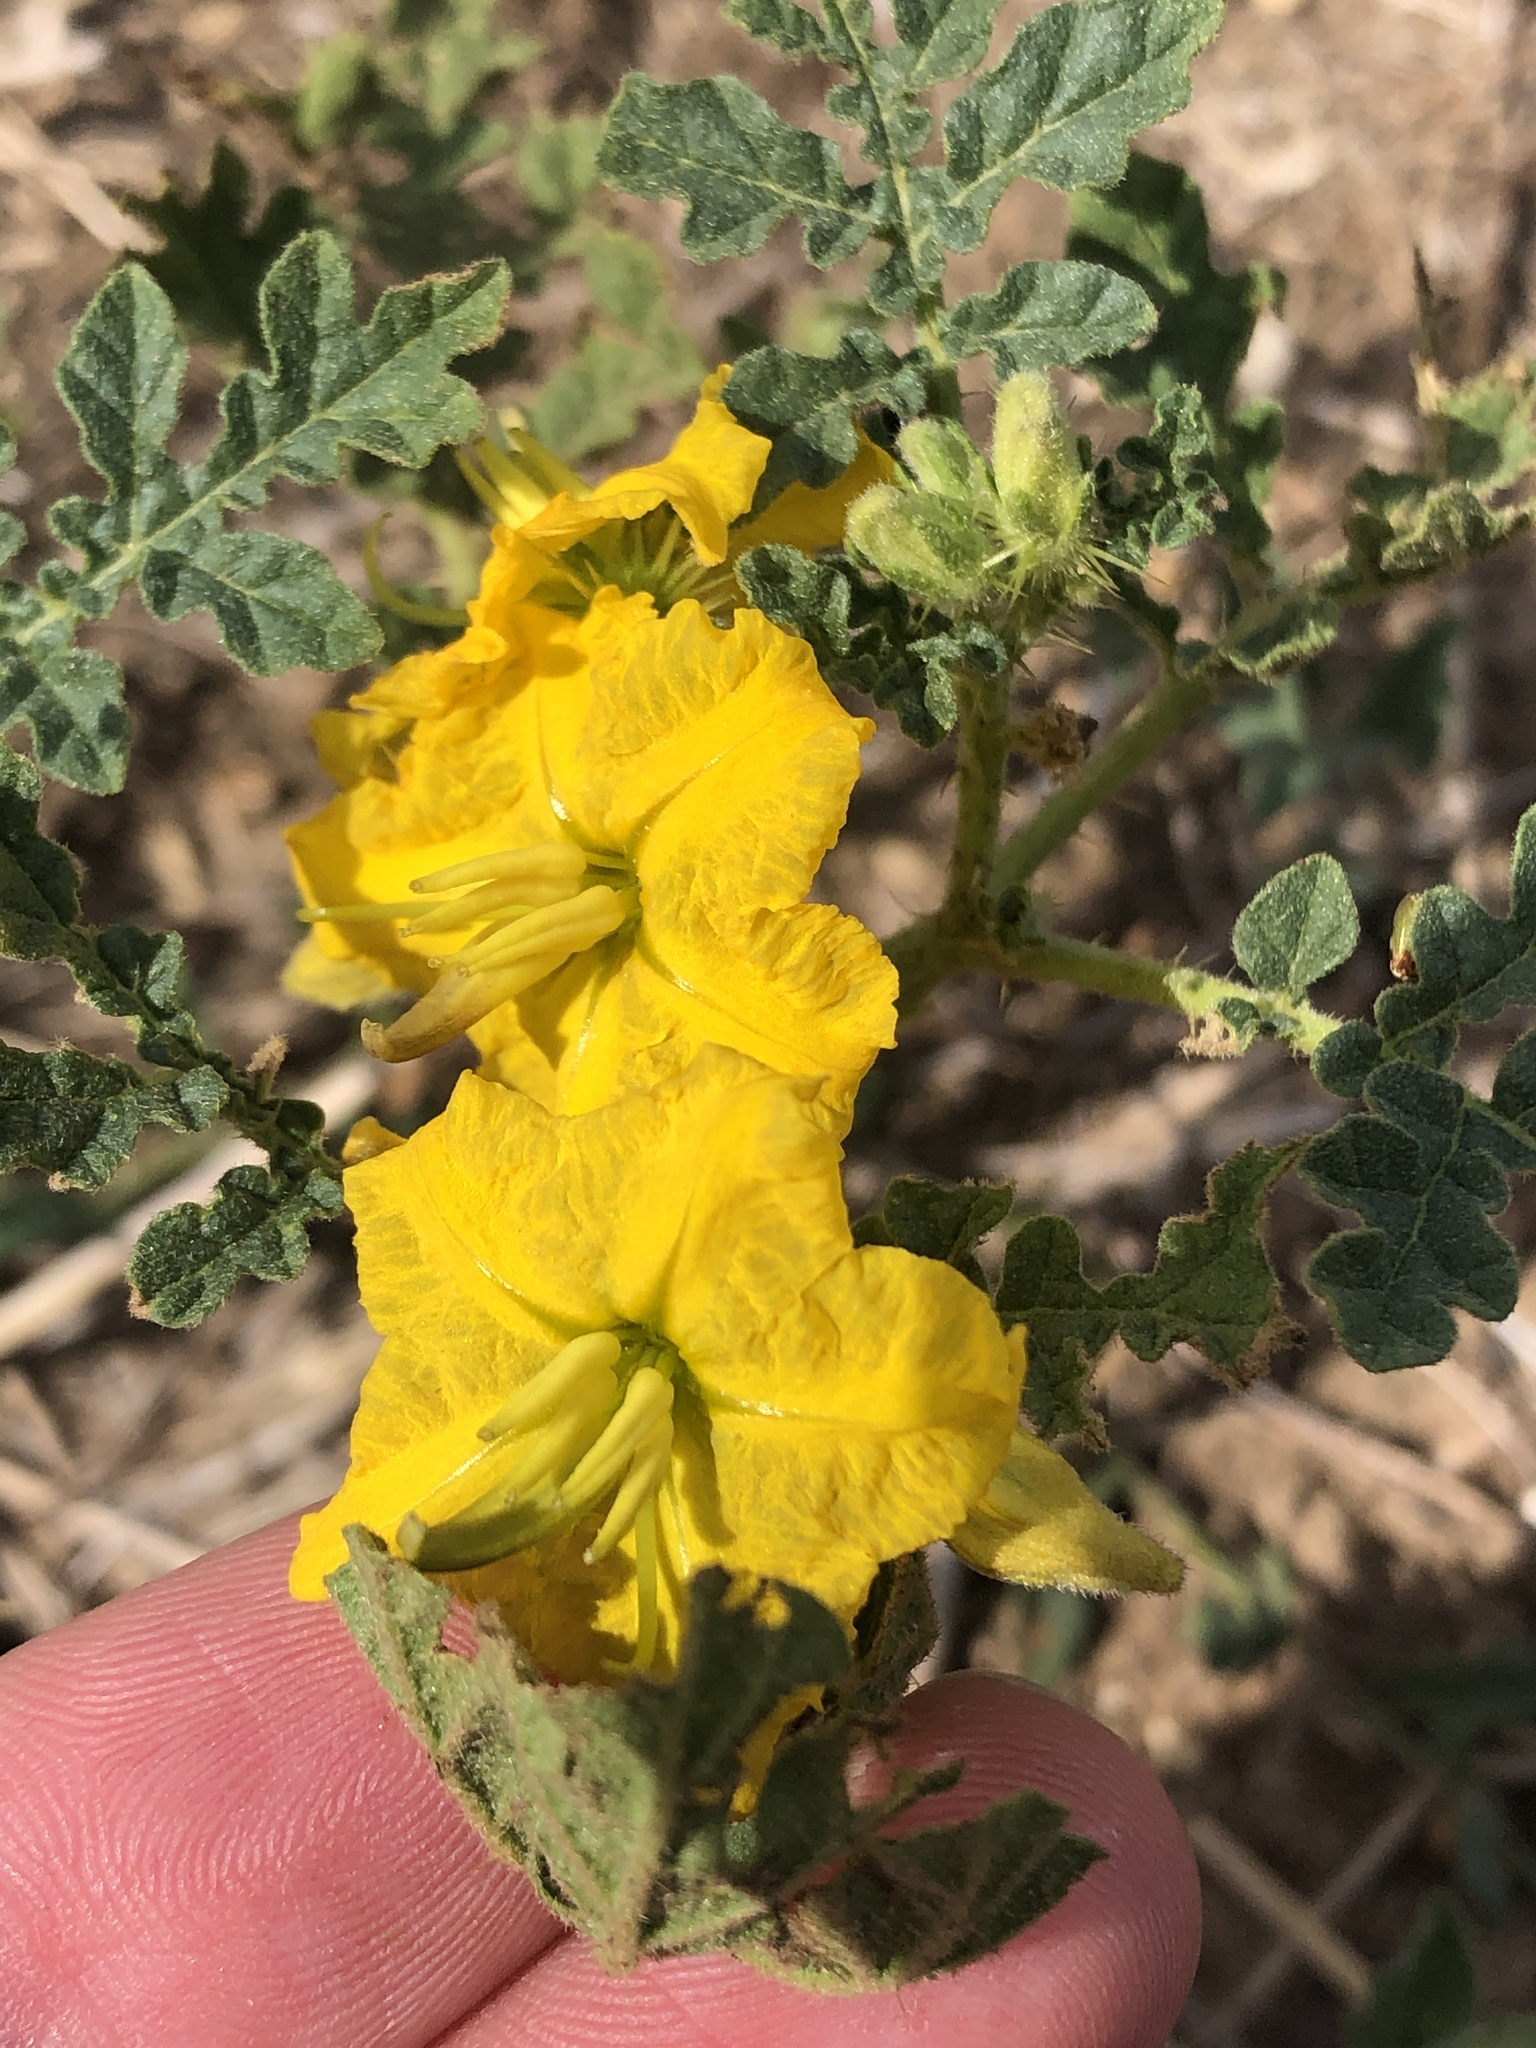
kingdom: Plantae
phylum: Tracheophyta
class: Magnoliopsida
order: Solanales
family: Solanaceae
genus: Solanum
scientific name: Solanum angustifolium
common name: Buffalobur nightshade
